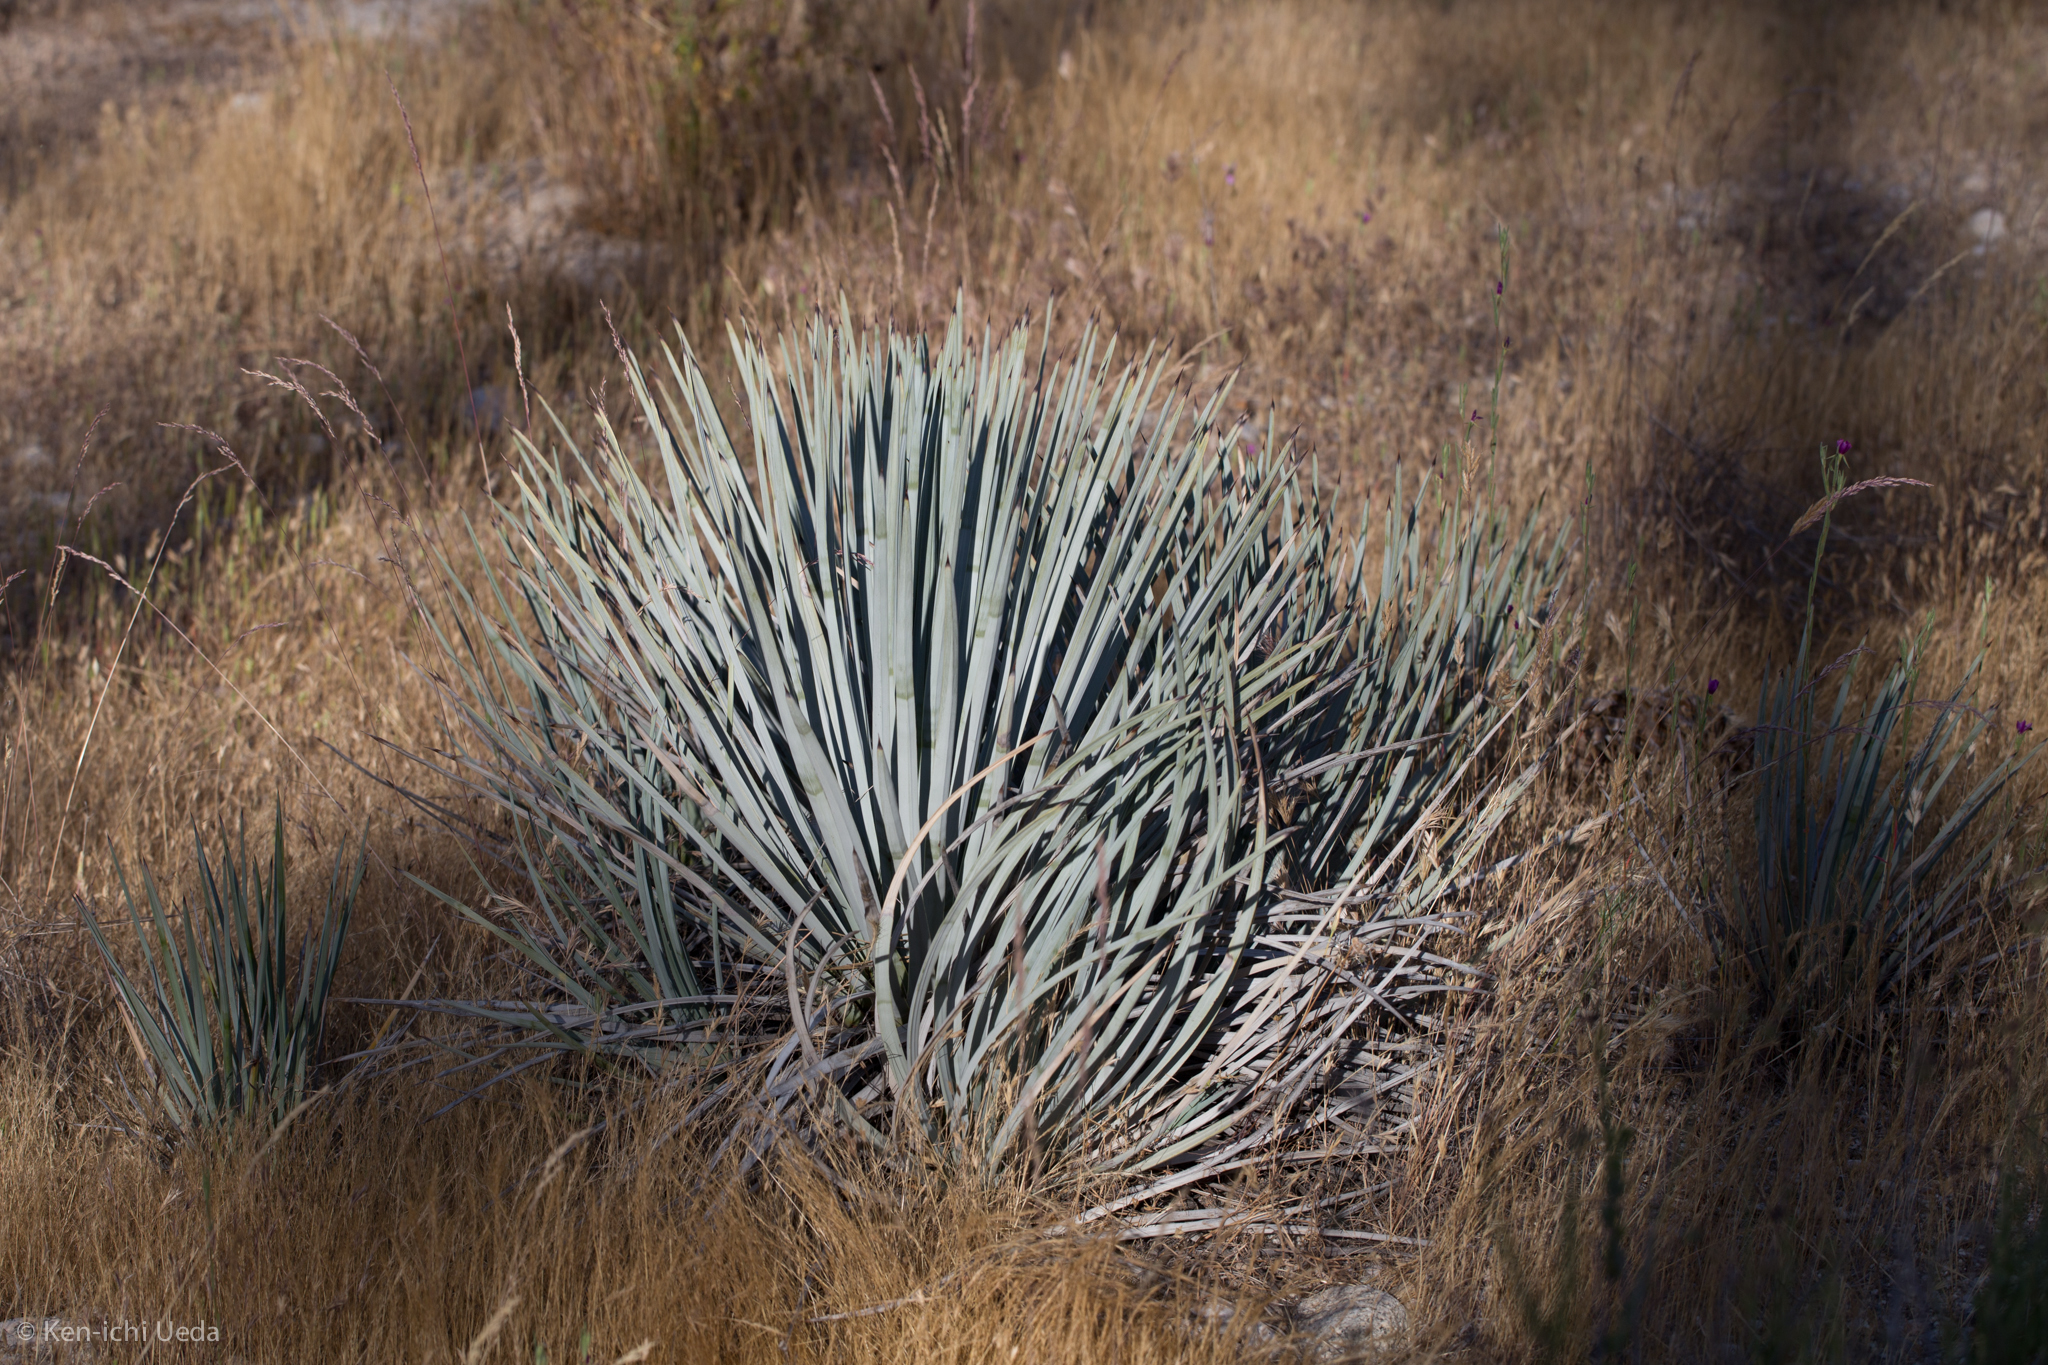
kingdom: Plantae
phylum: Tracheophyta
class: Liliopsida
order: Asparagales
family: Asparagaceae
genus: Hesperoyucca
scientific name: Hesperoyucca whipplei
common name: Our lord's-candle
